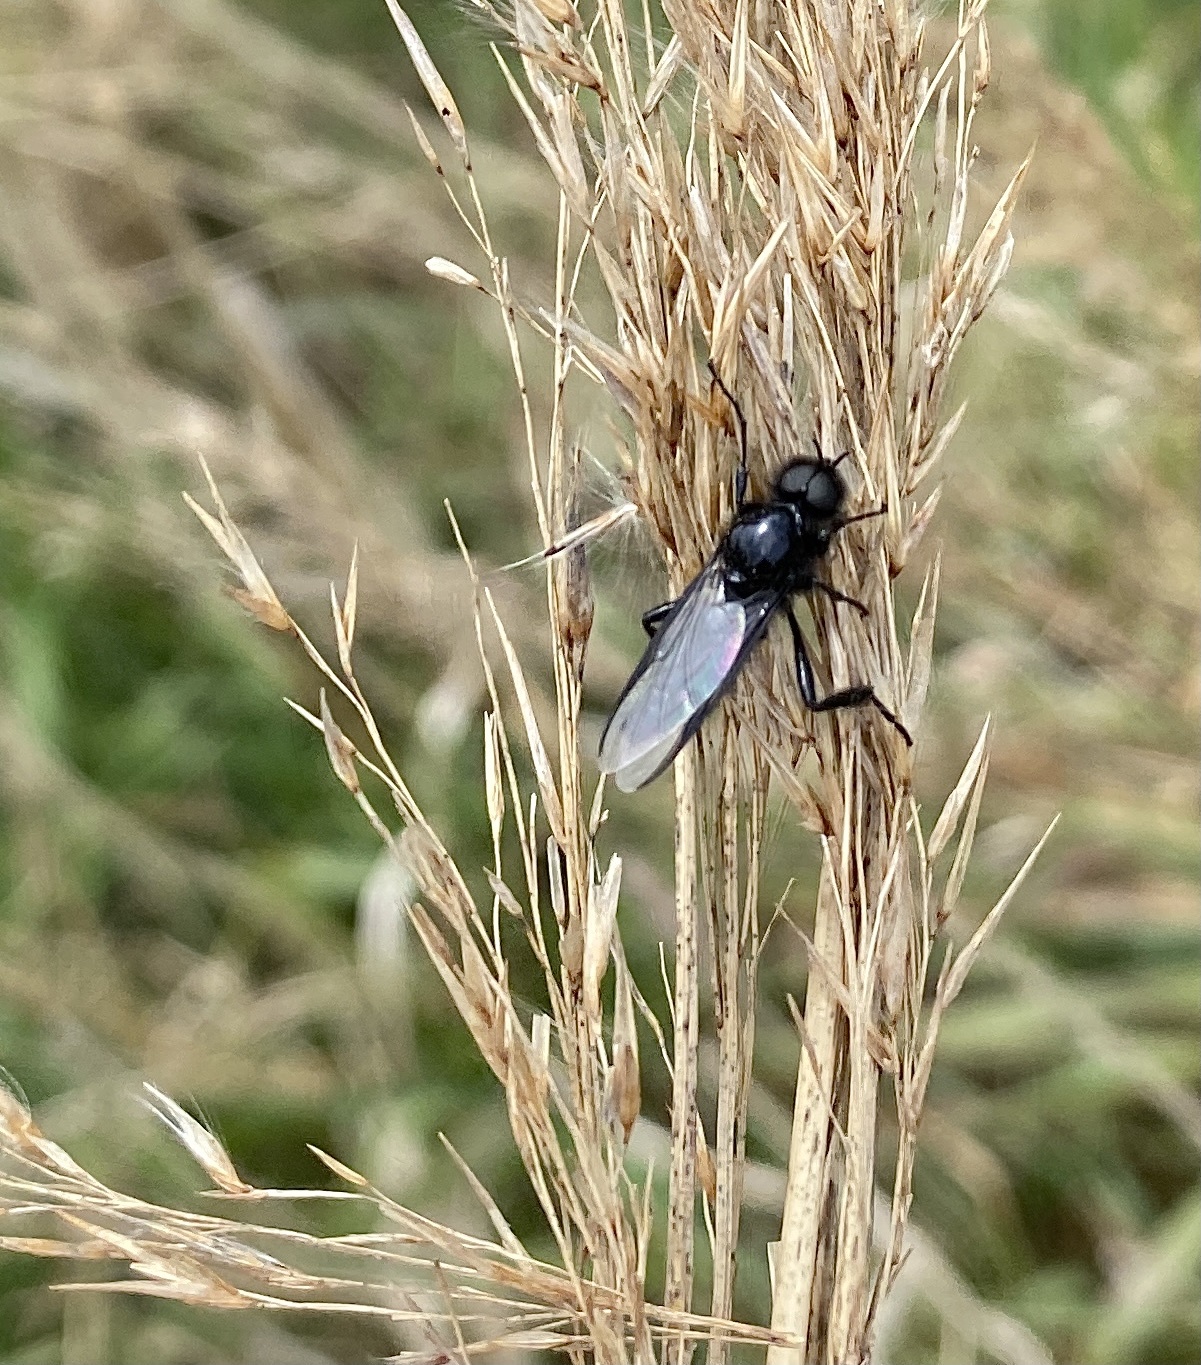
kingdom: Animalia
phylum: Arthropoda
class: Insecta
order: Diptera
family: Bibionidae
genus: Bibio
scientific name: Bibio marci
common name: St marks fly
